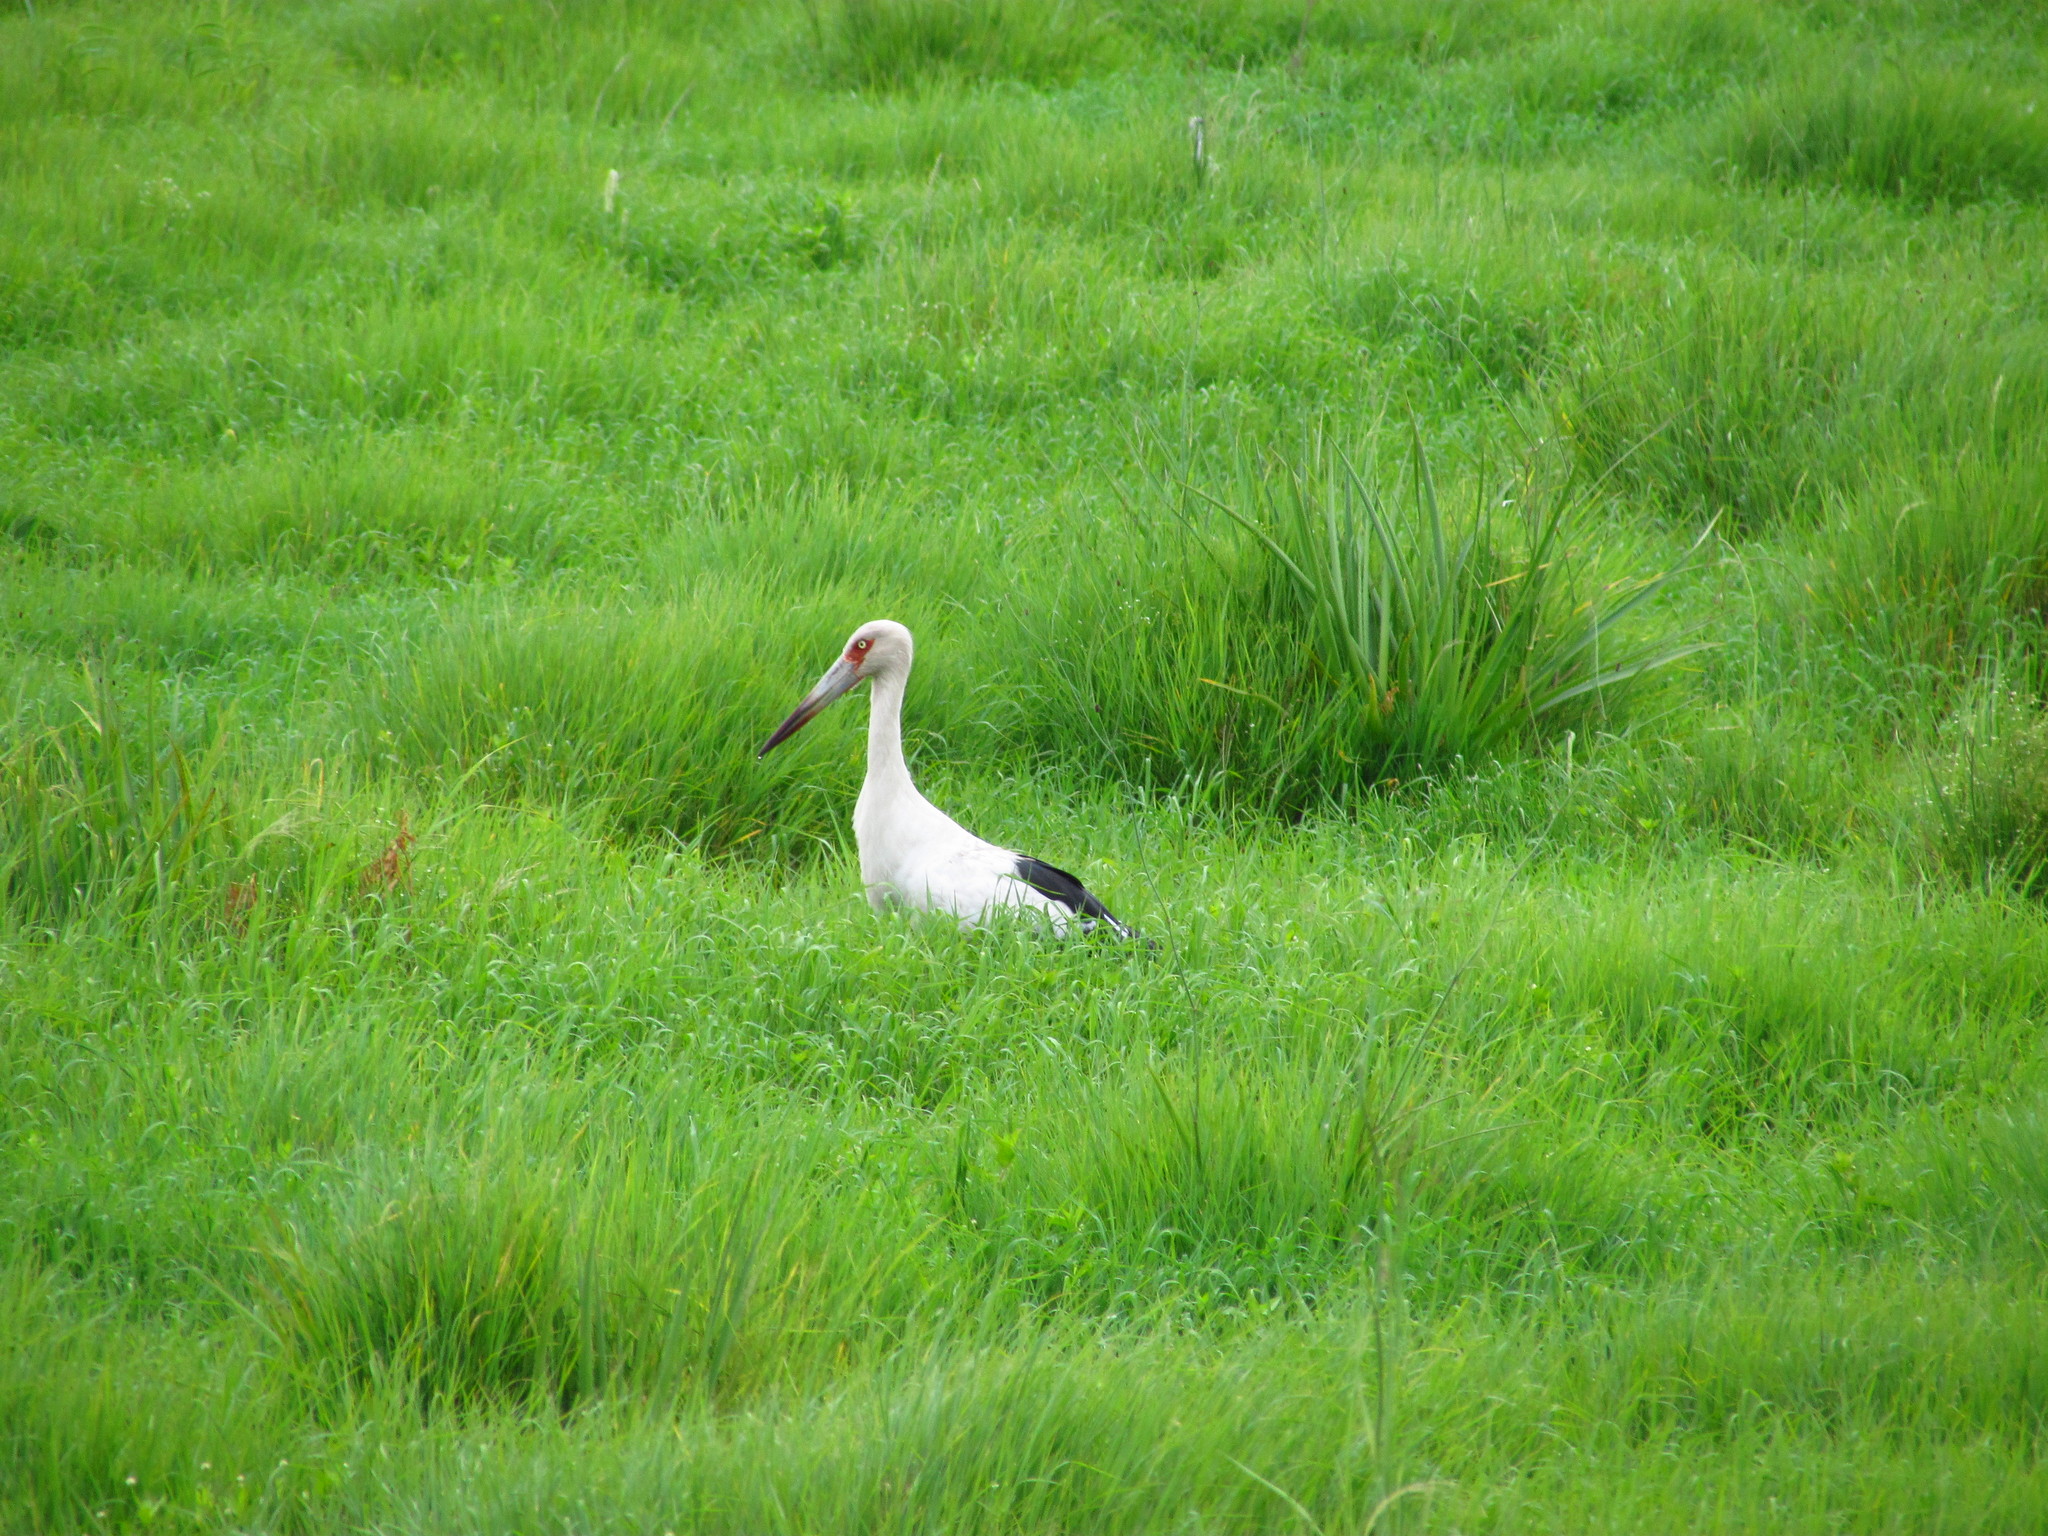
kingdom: Animalia
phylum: Chordata
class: Aves
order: Ciconiiformes
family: Ciconiidae
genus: Ciconia
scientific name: Ciconia maguari
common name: Maguari stork
